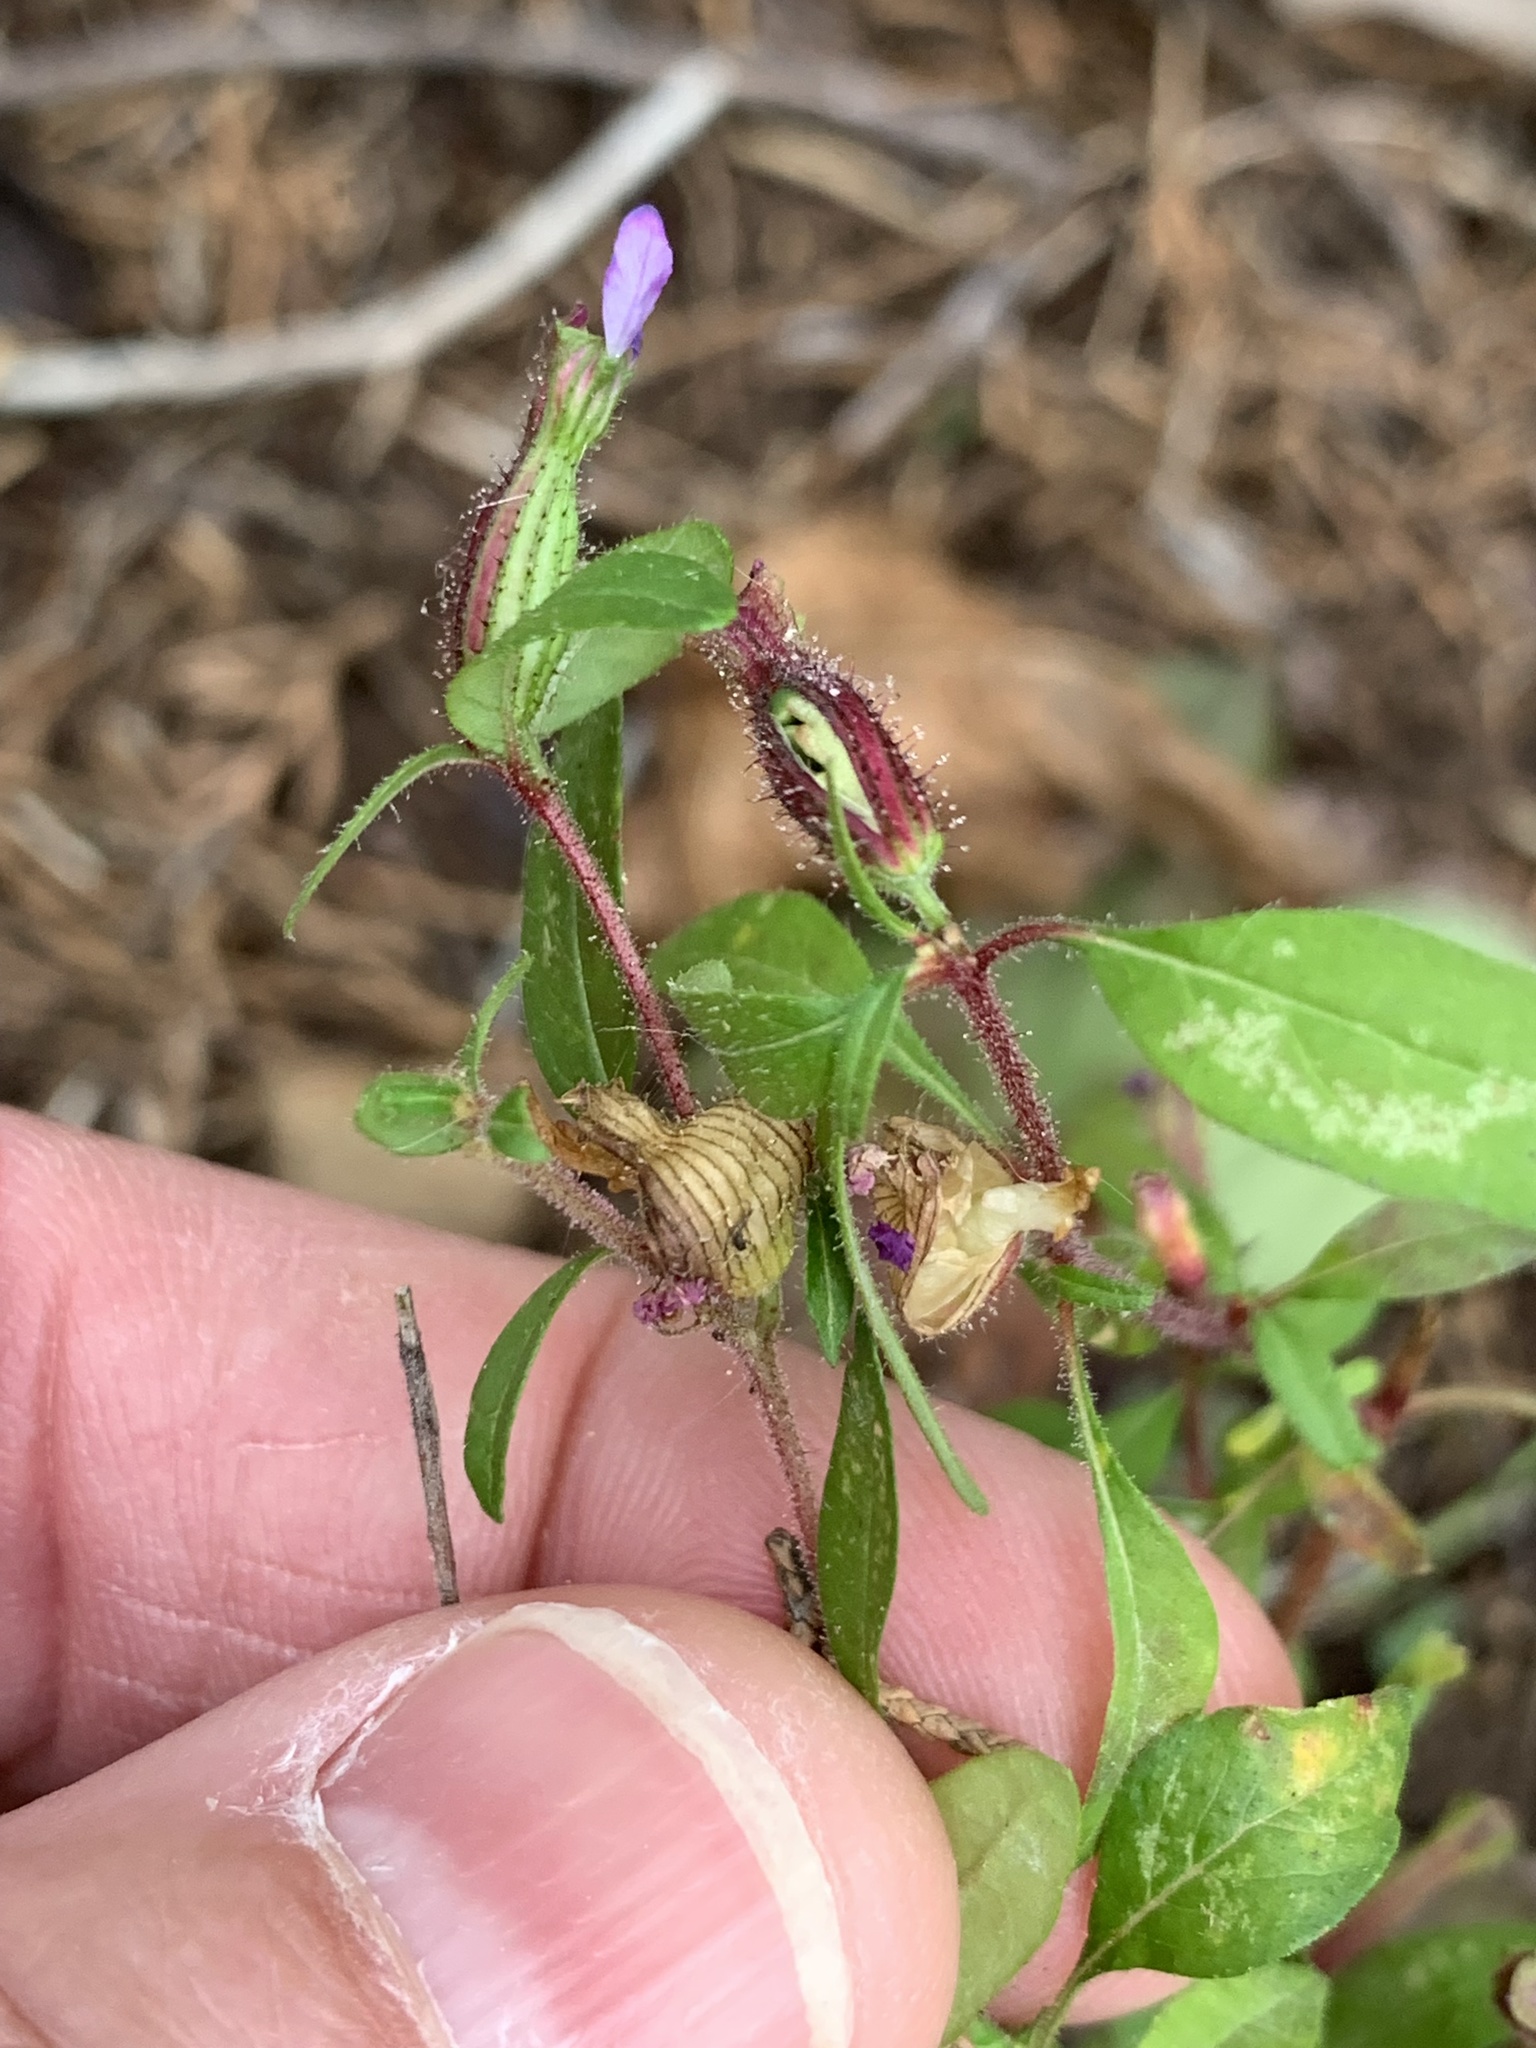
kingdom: Plantae
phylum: Tracheophyta
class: Magnoliopsida
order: Myrtales
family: Lythraceae
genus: Cuphea
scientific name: Cuphea viscosissima
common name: Clammy cuphea
